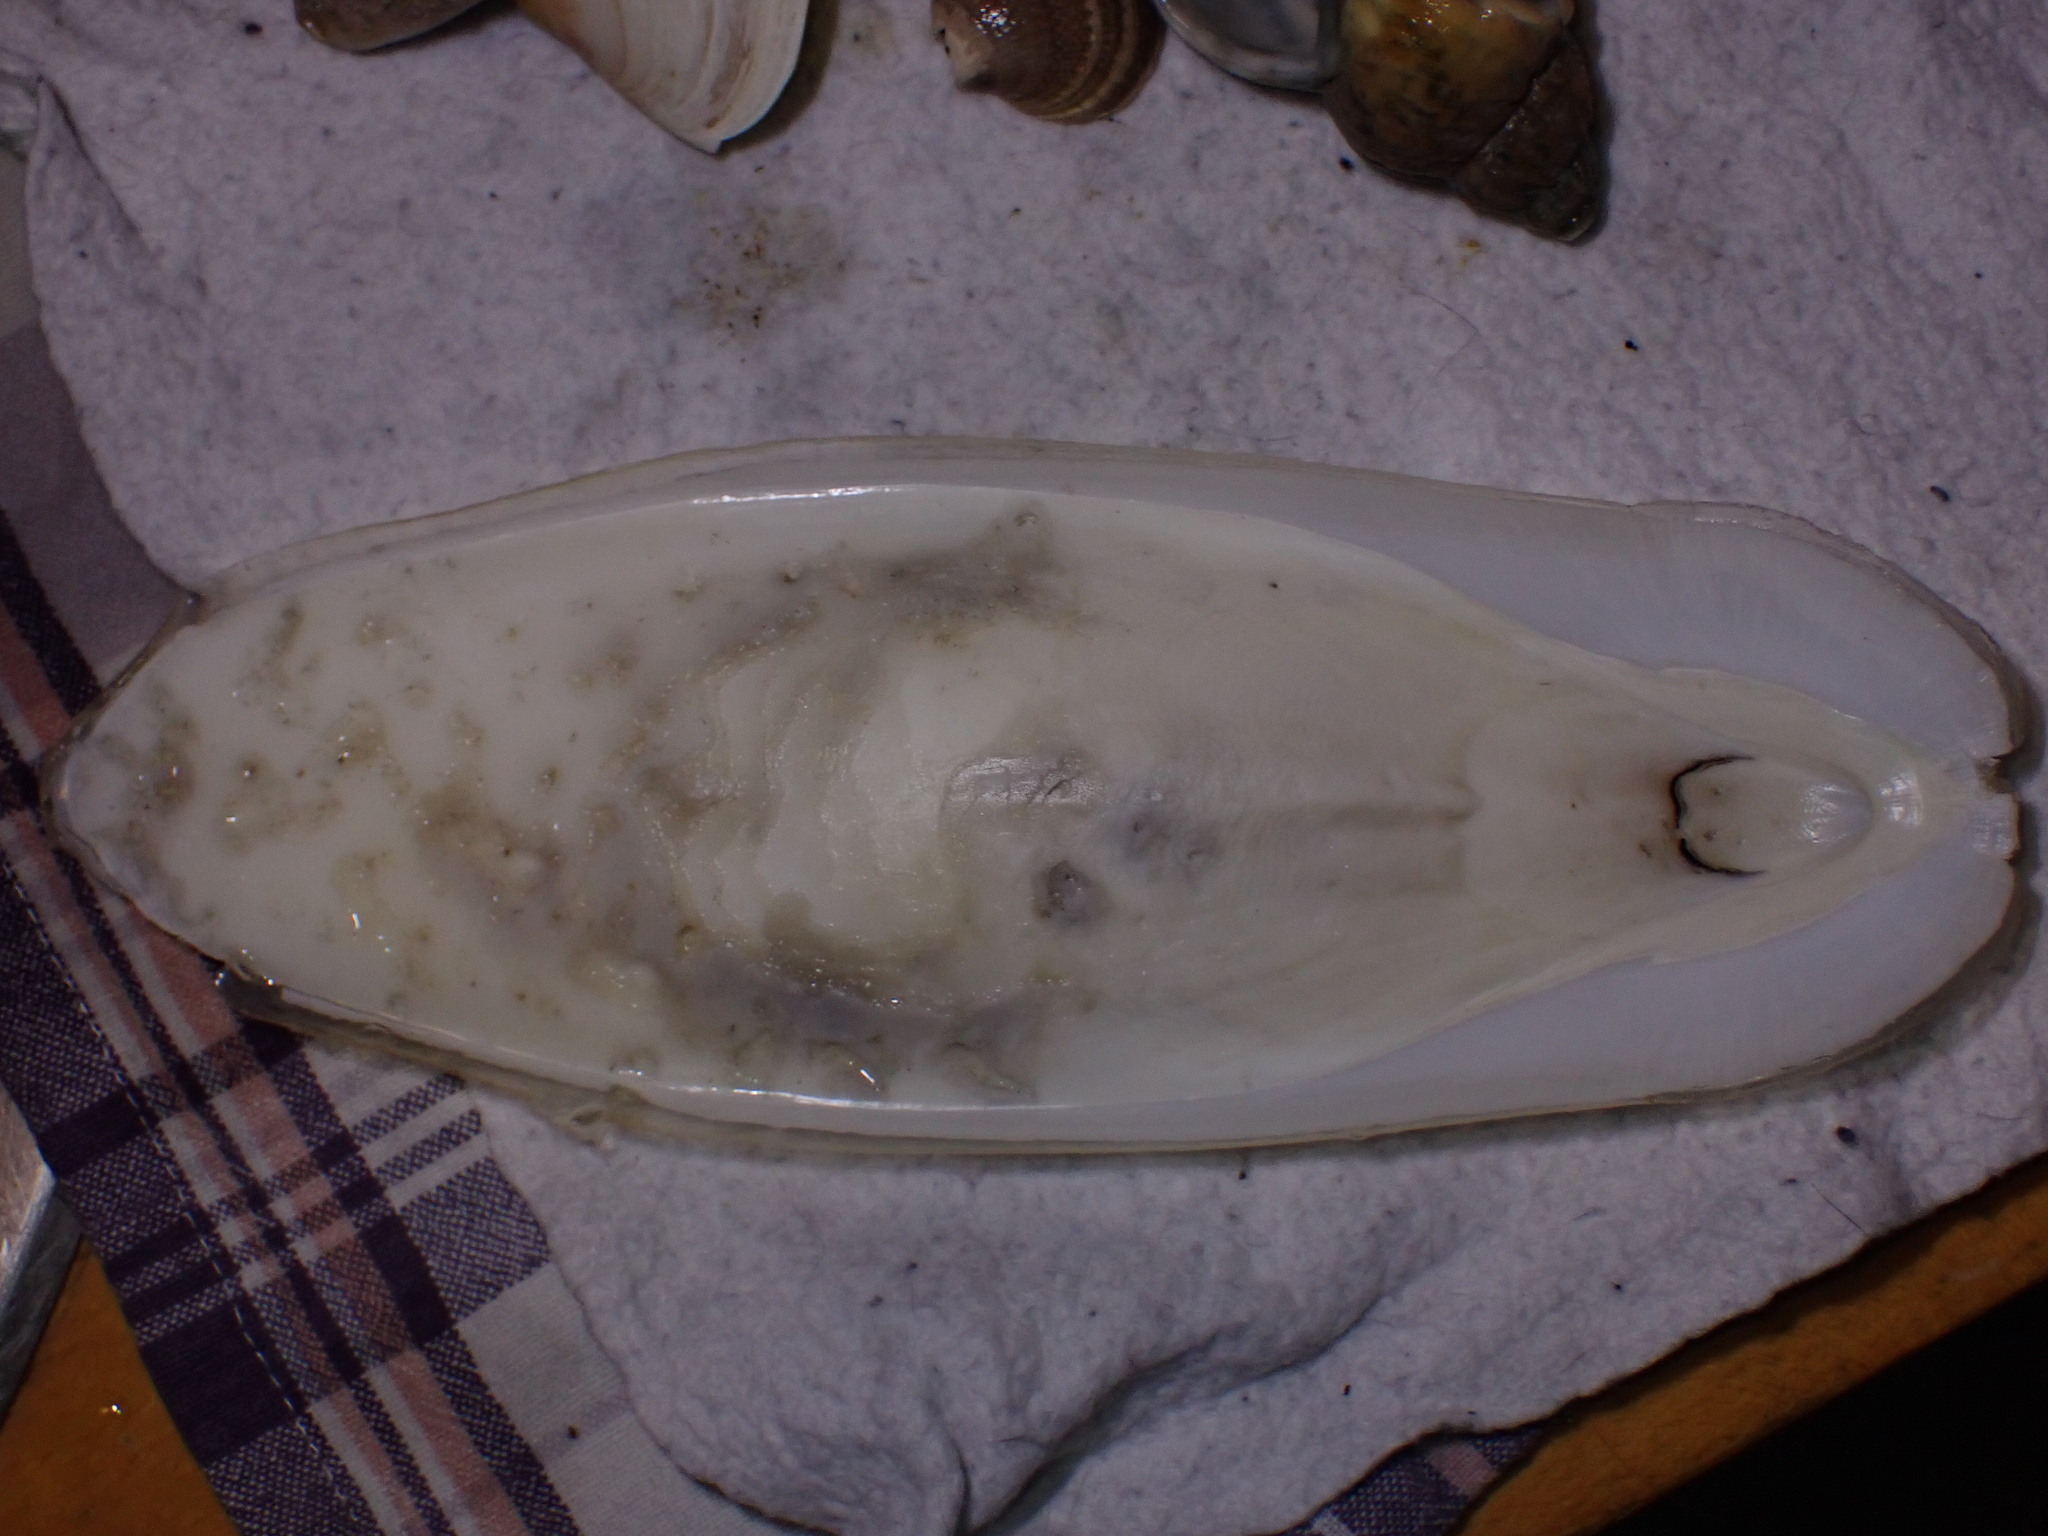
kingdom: Animalia
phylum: Mollusca
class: Cephalopoda
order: Sepiida
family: Sepiidae
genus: Sepia
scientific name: Sepia officinalis
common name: Common cuttlefish
